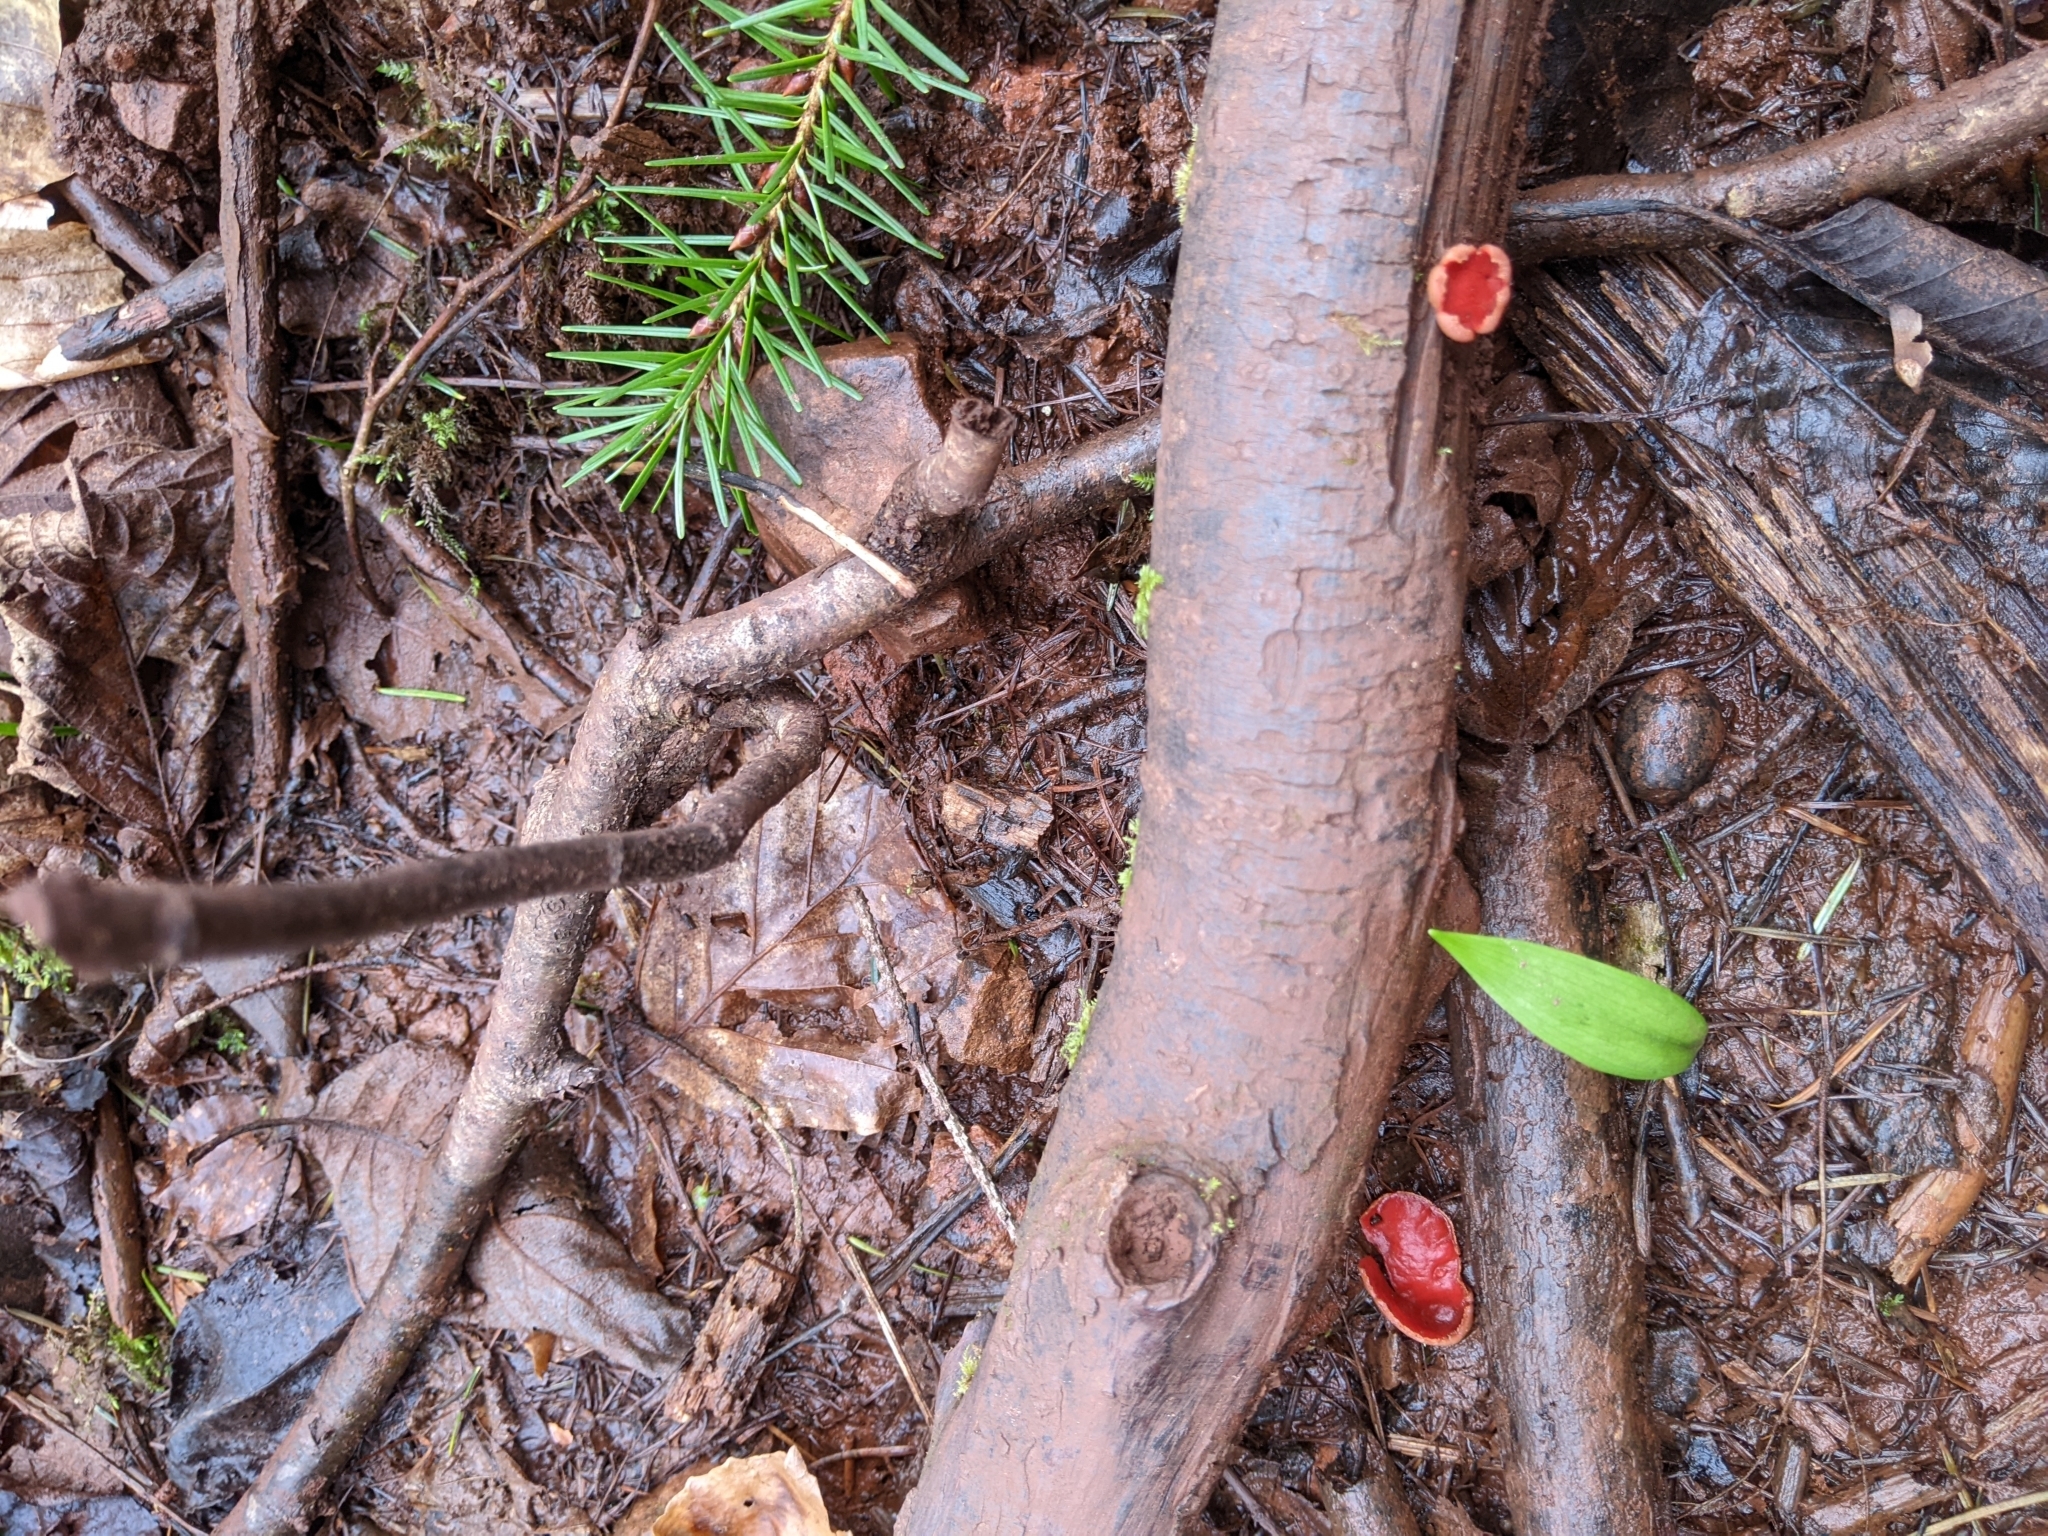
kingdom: Fungi
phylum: Ascomycota
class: Pezizomycetes
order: Pezizales
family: Sarcoscyphaceae
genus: Sarcoscypha
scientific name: Sarcoscypha
